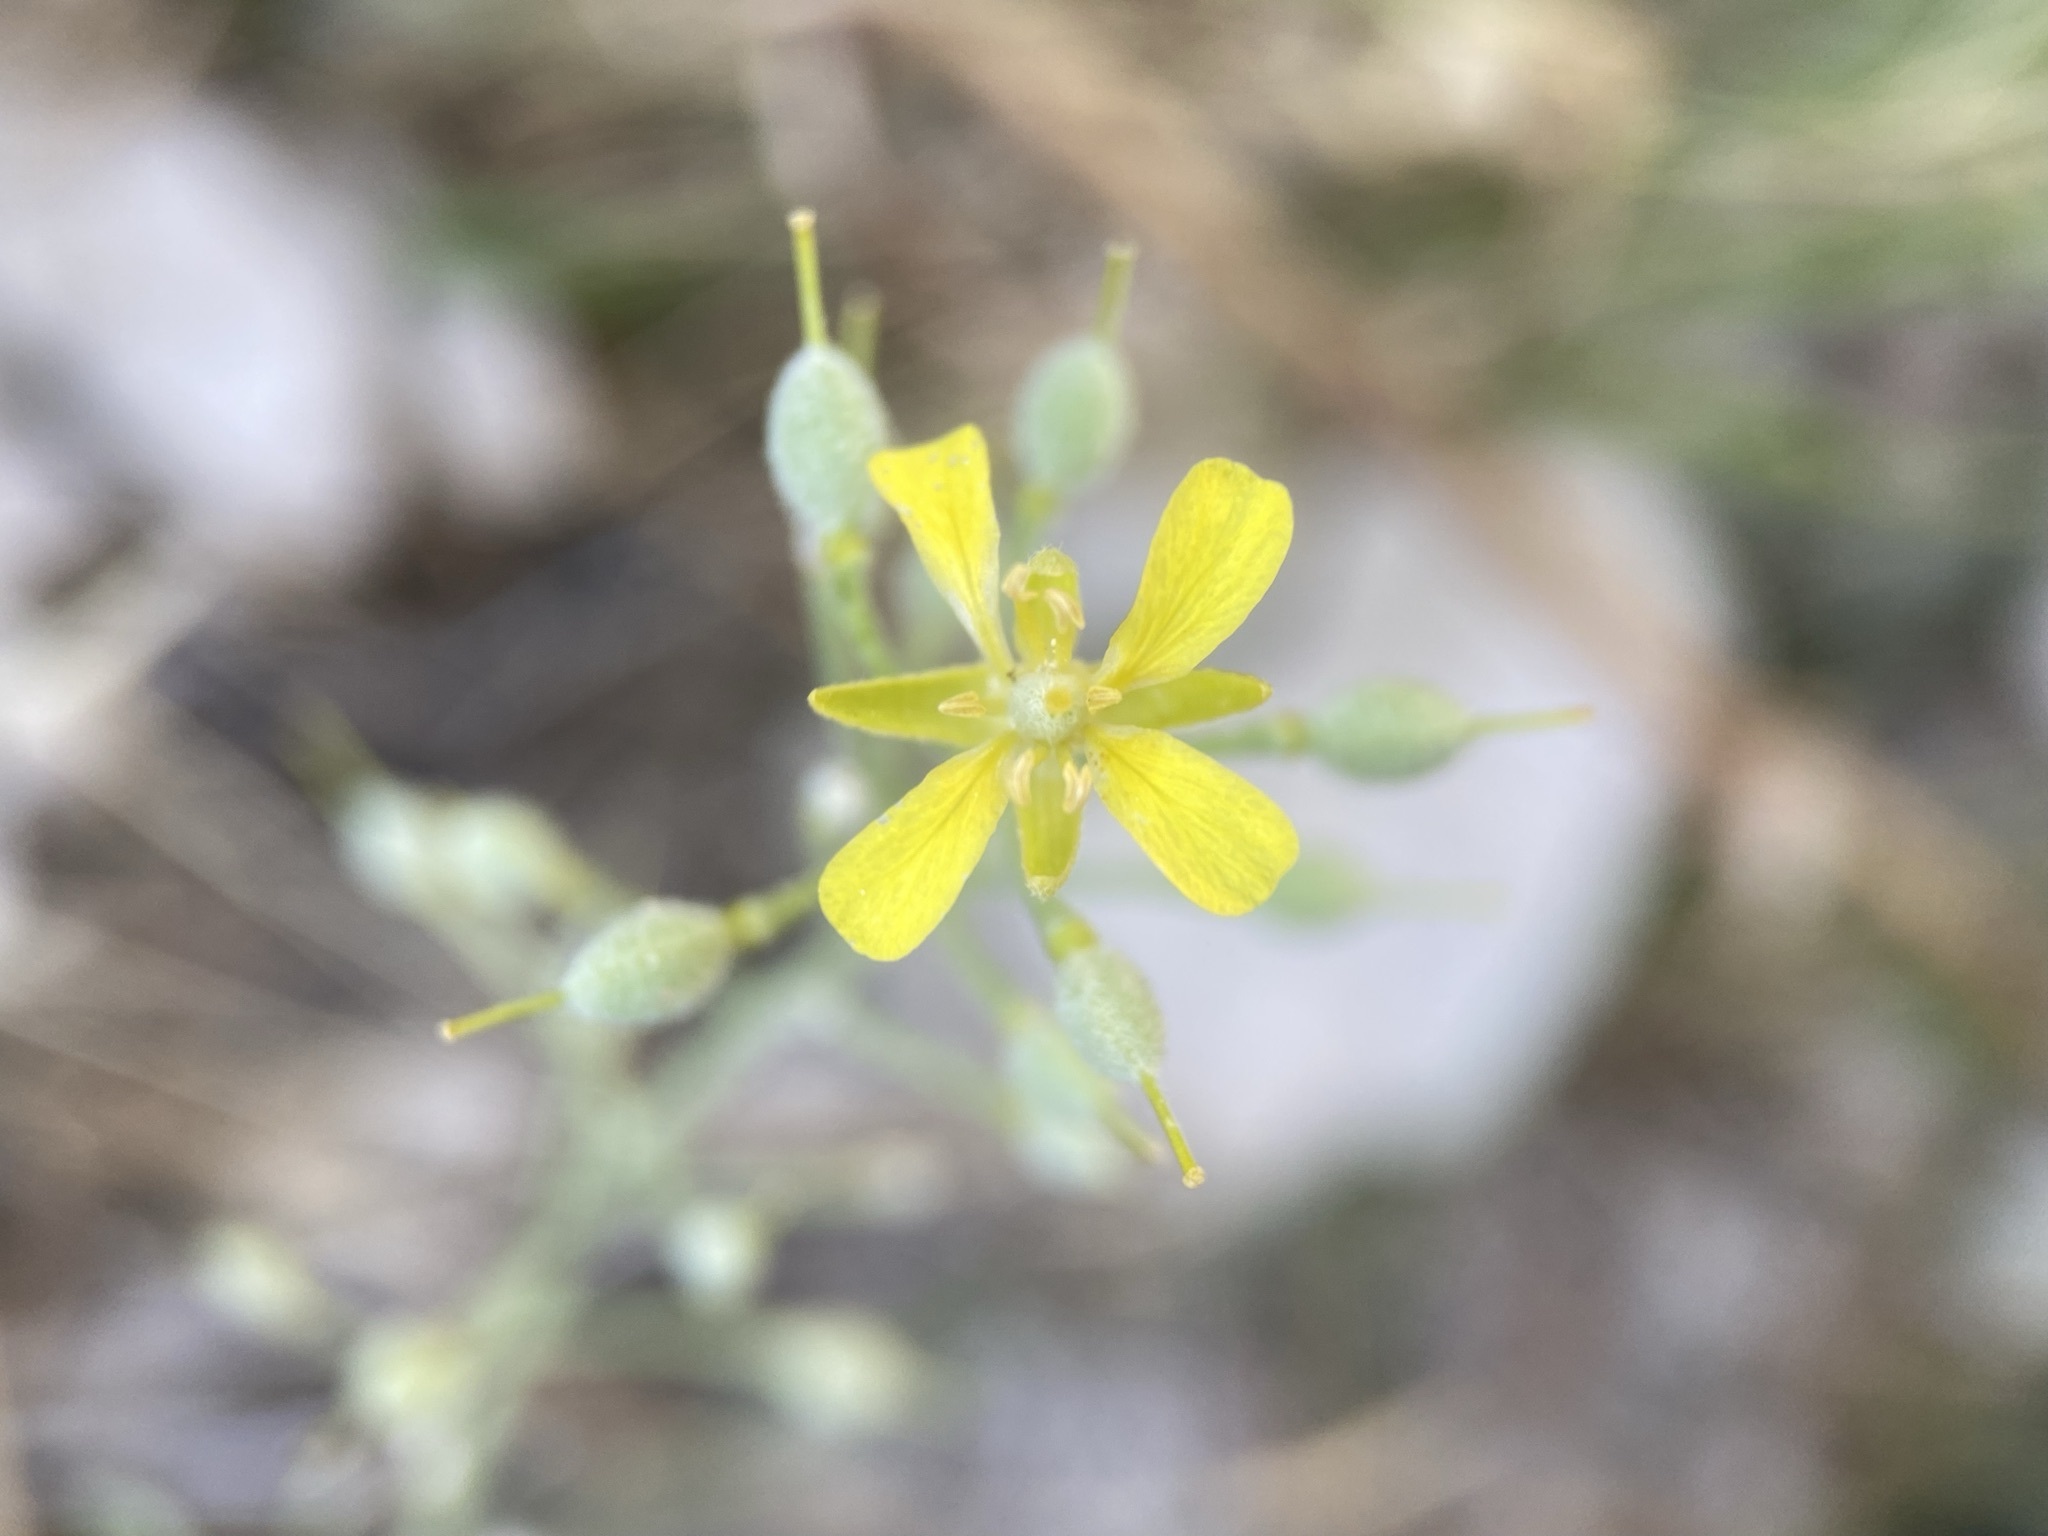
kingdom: Plantae
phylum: Tracheophyta
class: Magnoliopsida
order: Brassicales
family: Brassicaceae
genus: Physaria
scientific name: Physaria ludoviciana
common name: Foothill bladderpod
